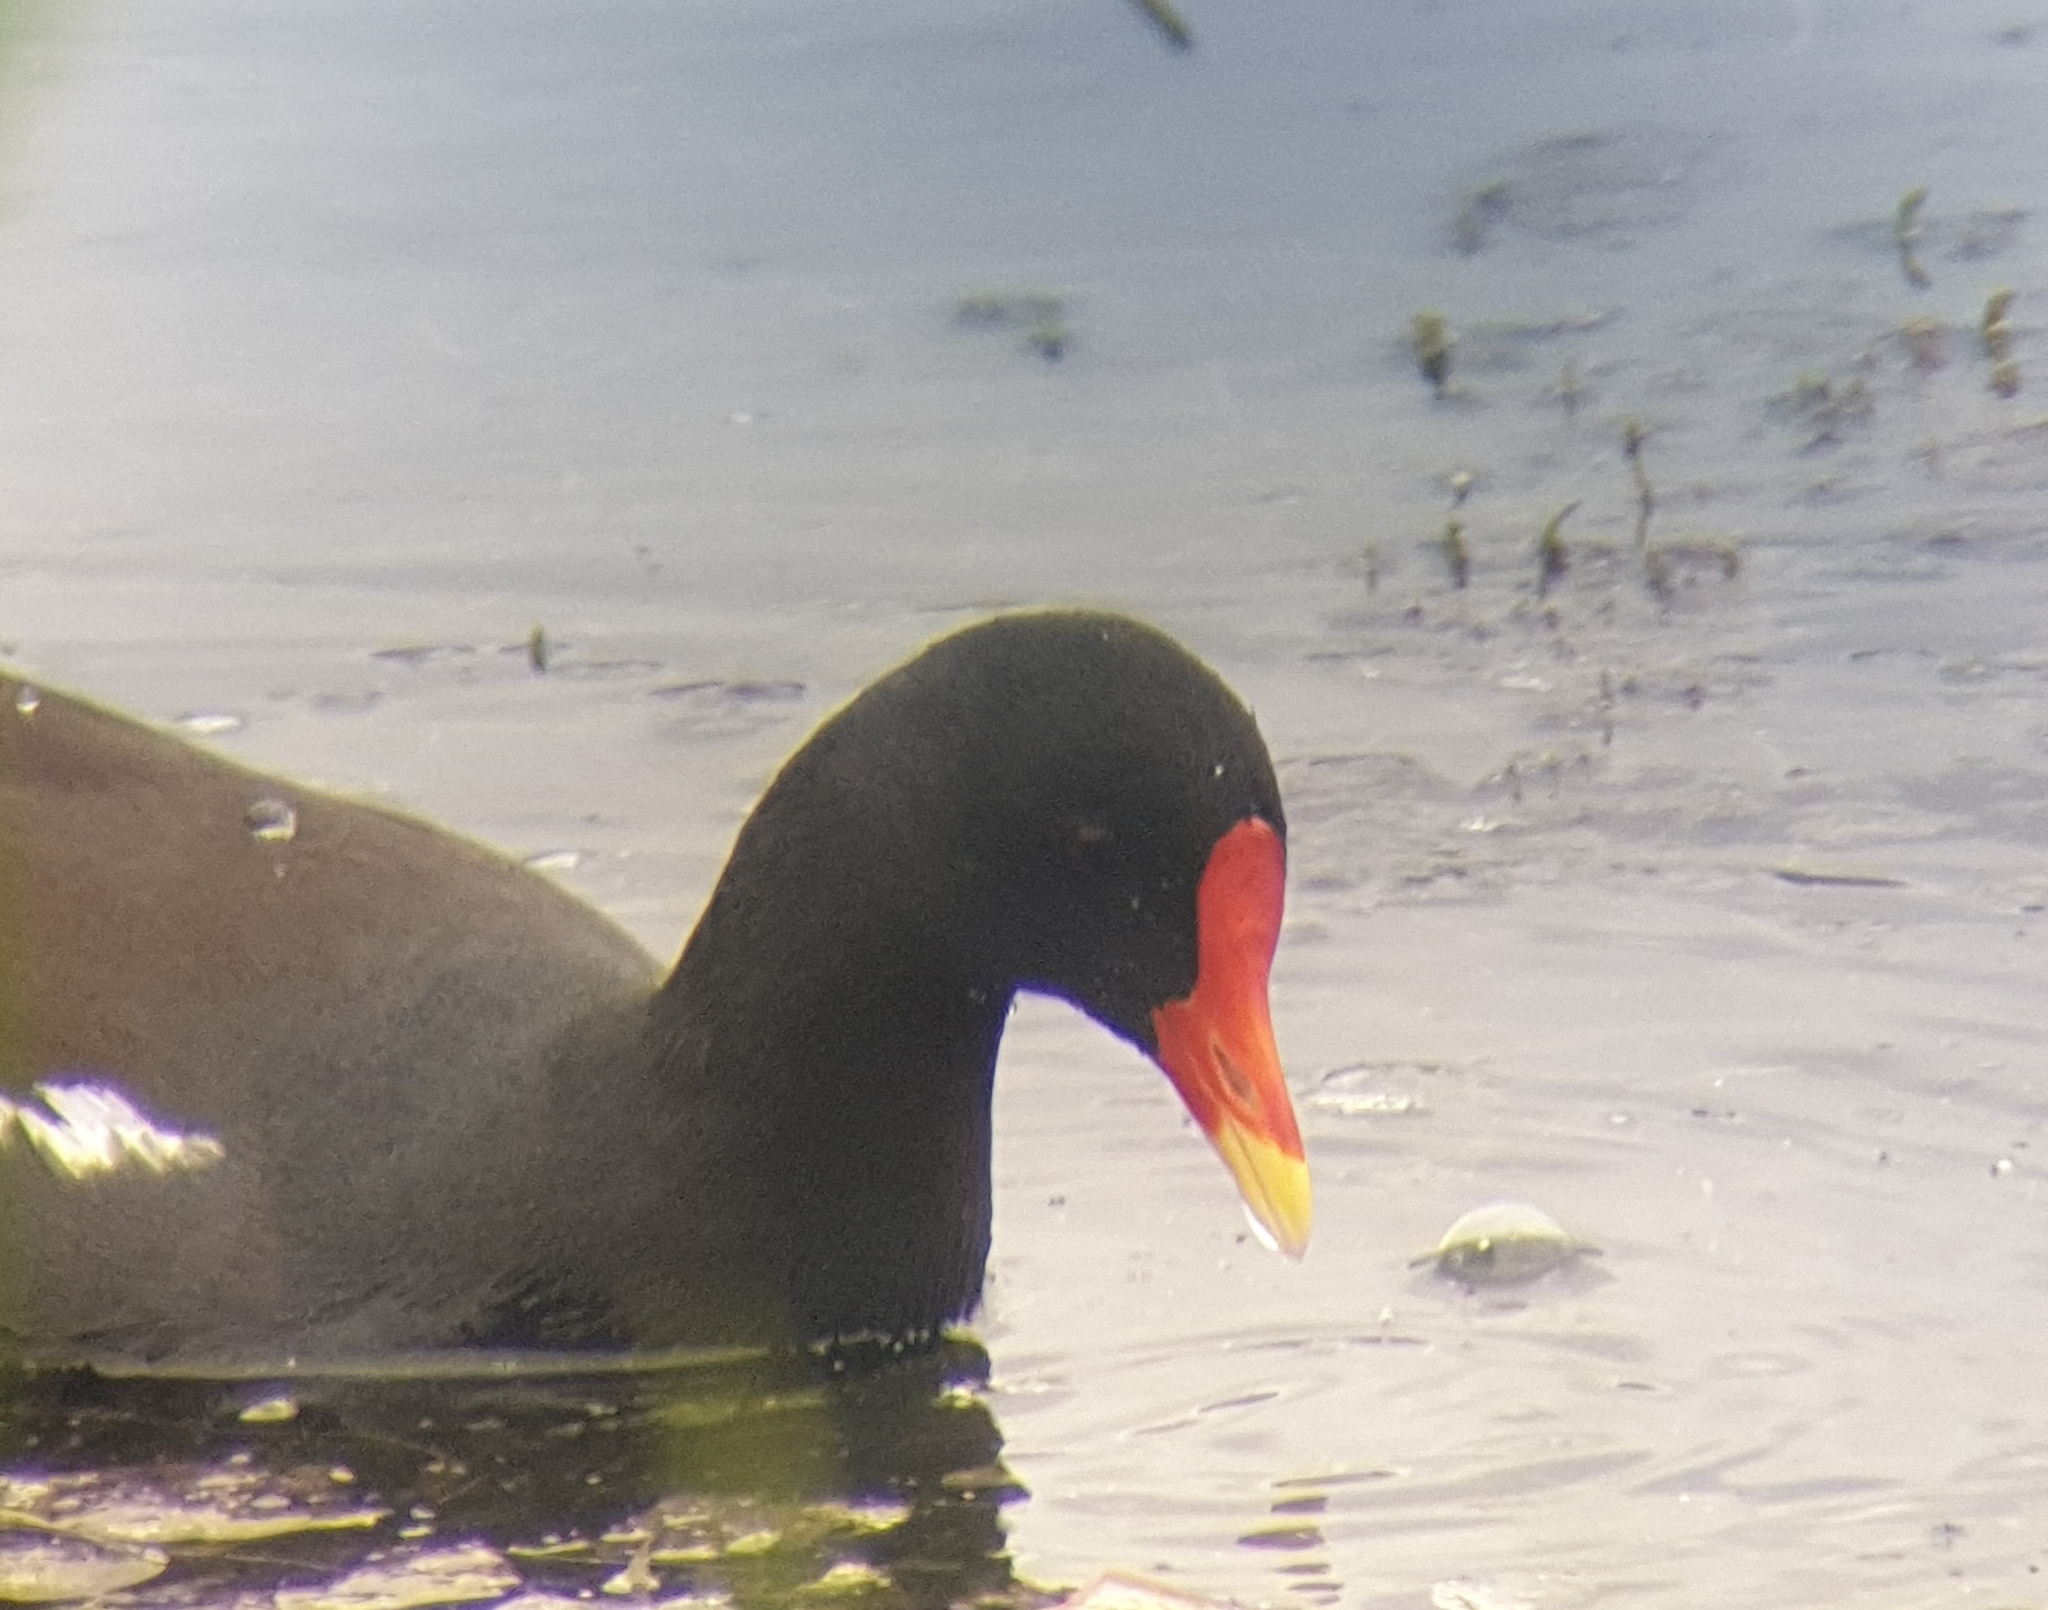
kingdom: Animalia
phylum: Chordata
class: Aves
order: Gruiformes
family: Rallidae
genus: Gallinula
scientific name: Gallinula chloropus
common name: Common moorhen
